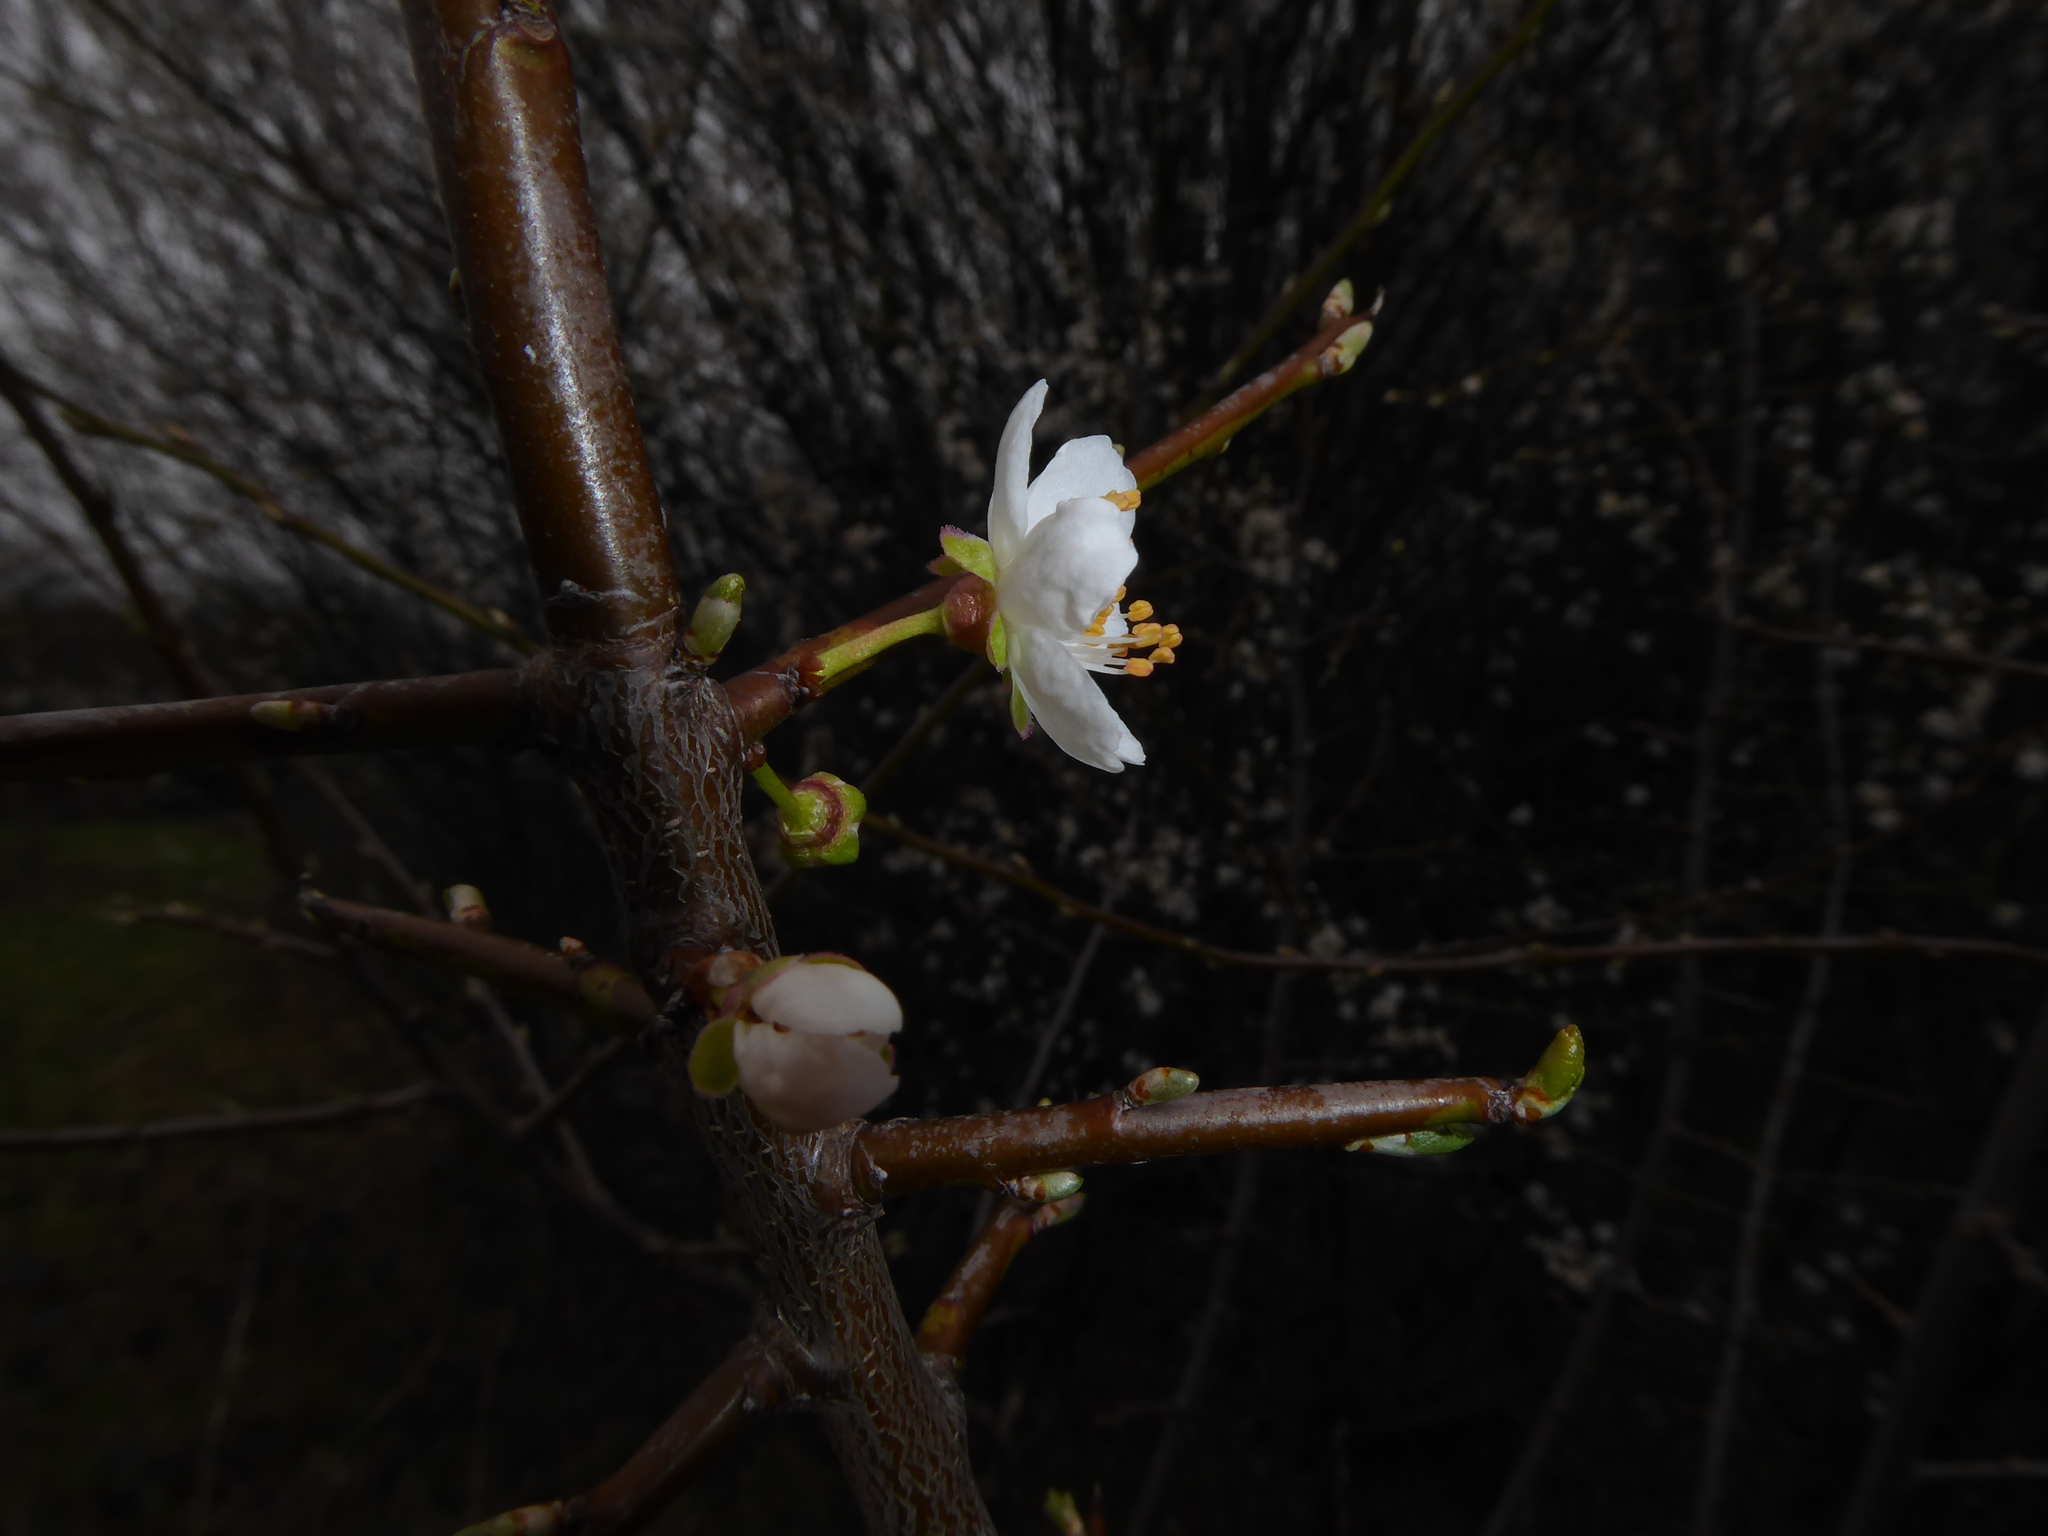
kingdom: Plantae
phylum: Tracheophyta
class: Magnoliopsida
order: Rosales
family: Rosaceae
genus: Prunus
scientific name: Prunus cerasifera
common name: Cherry plum
